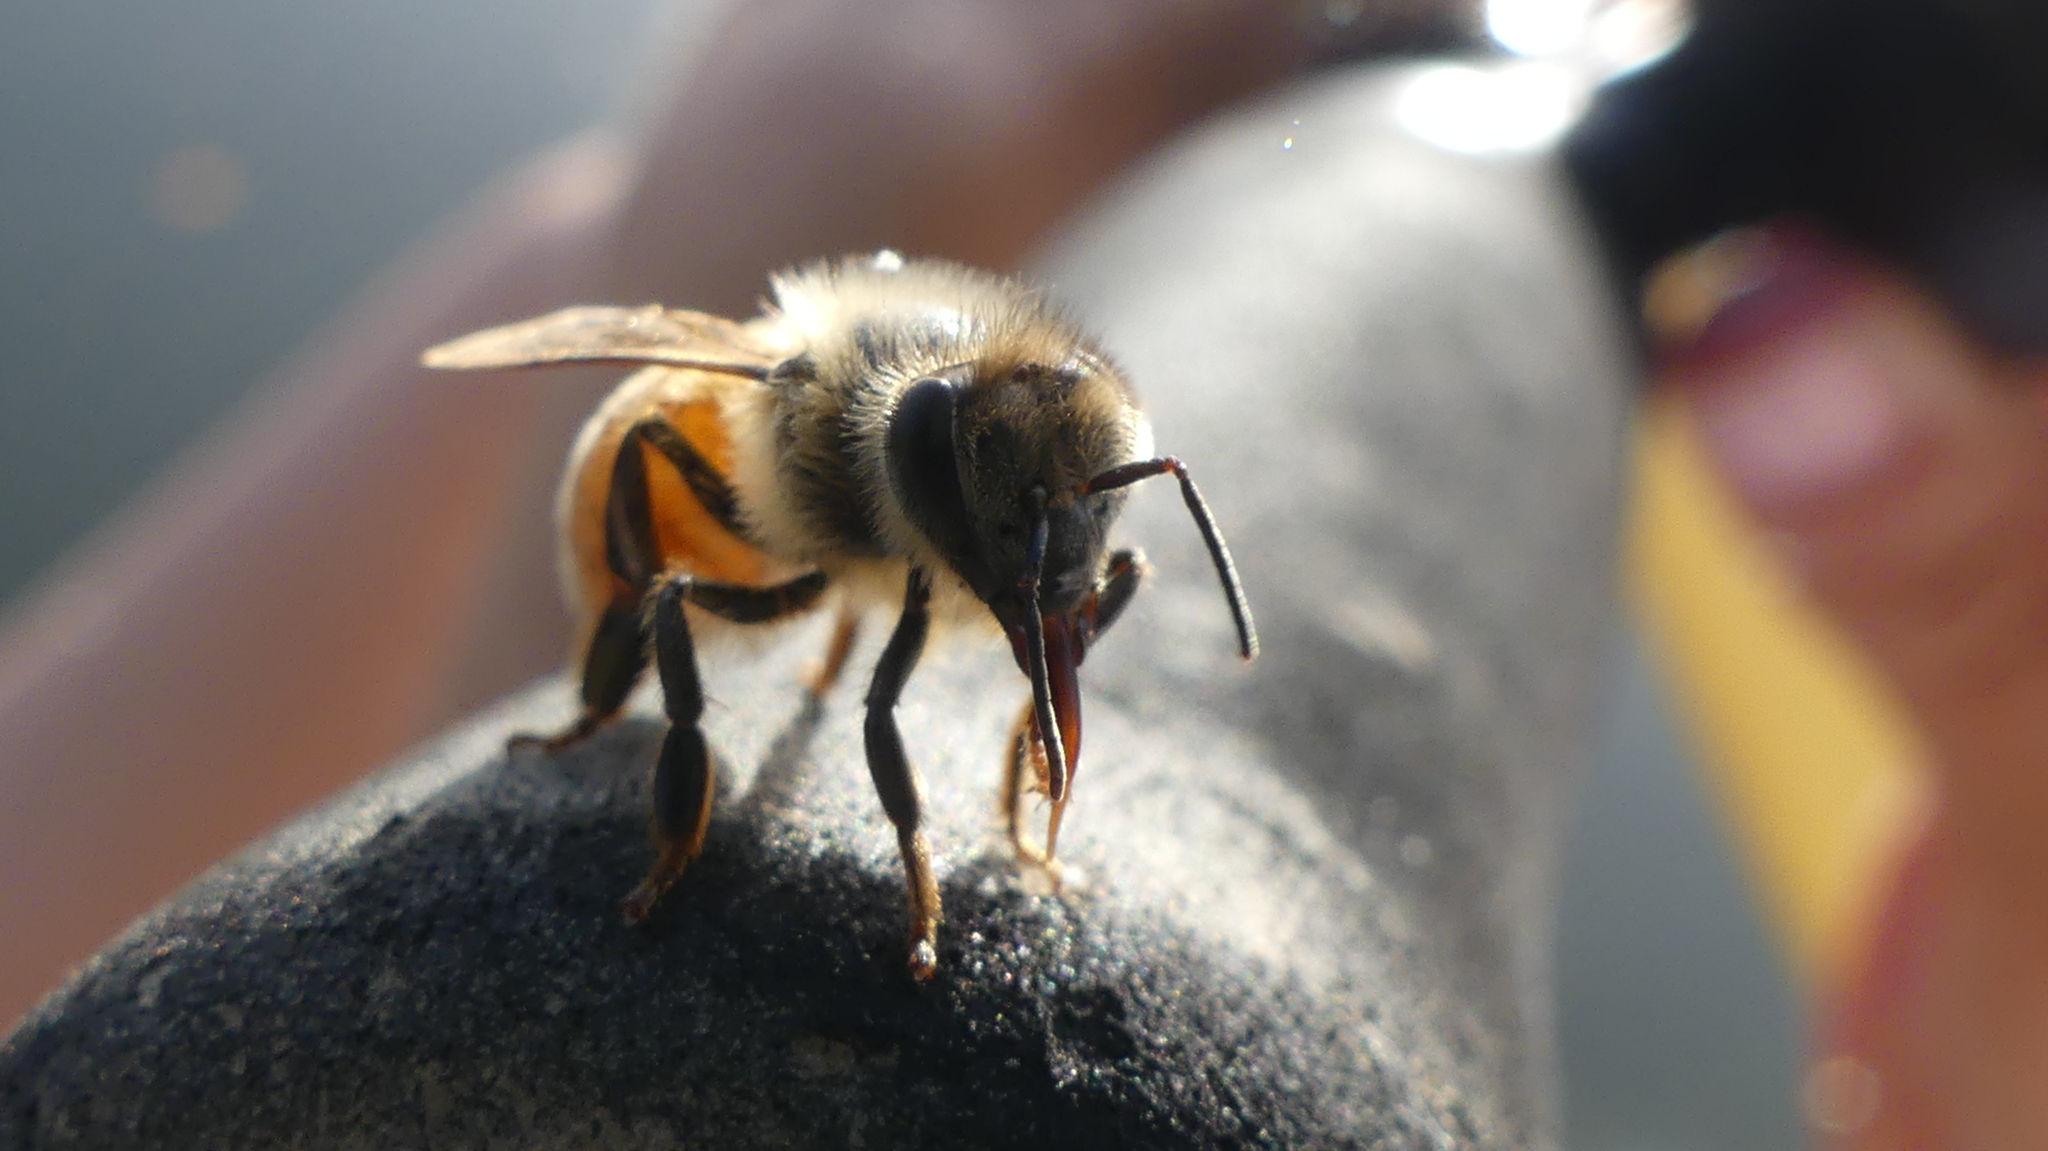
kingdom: Animalia
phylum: Arthropoda
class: Insecta
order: Hymenoptera
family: Apidae
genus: Apis
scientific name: Apis mellifera
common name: Honey bee
